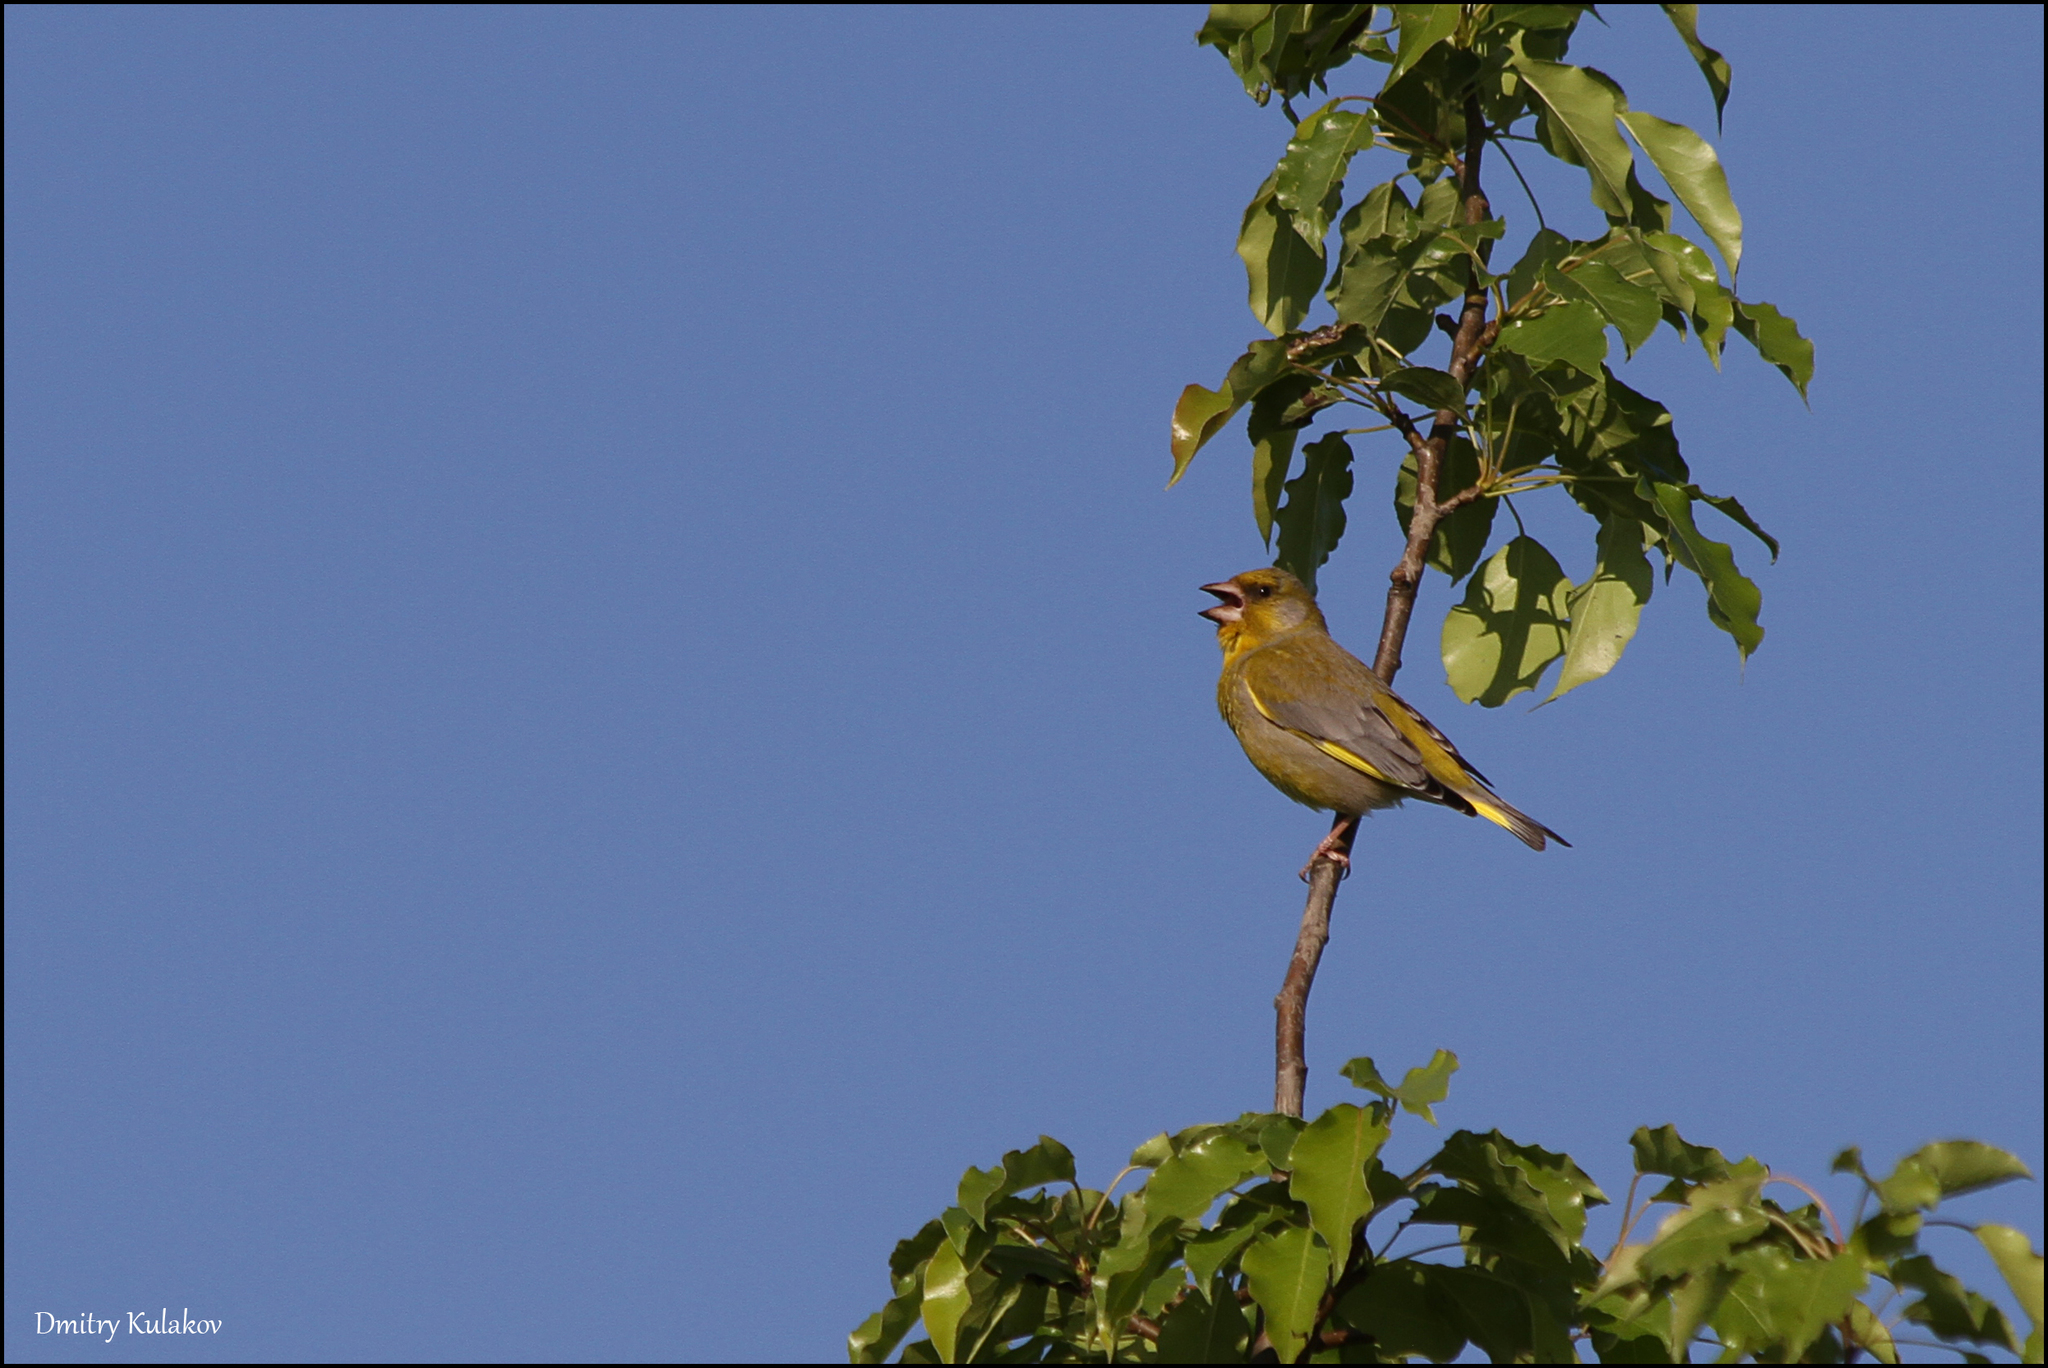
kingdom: Plantae
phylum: Tracheophyta
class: Liliopsida
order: Poales
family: Poaceae
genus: Chloris
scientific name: Chloris chloris
